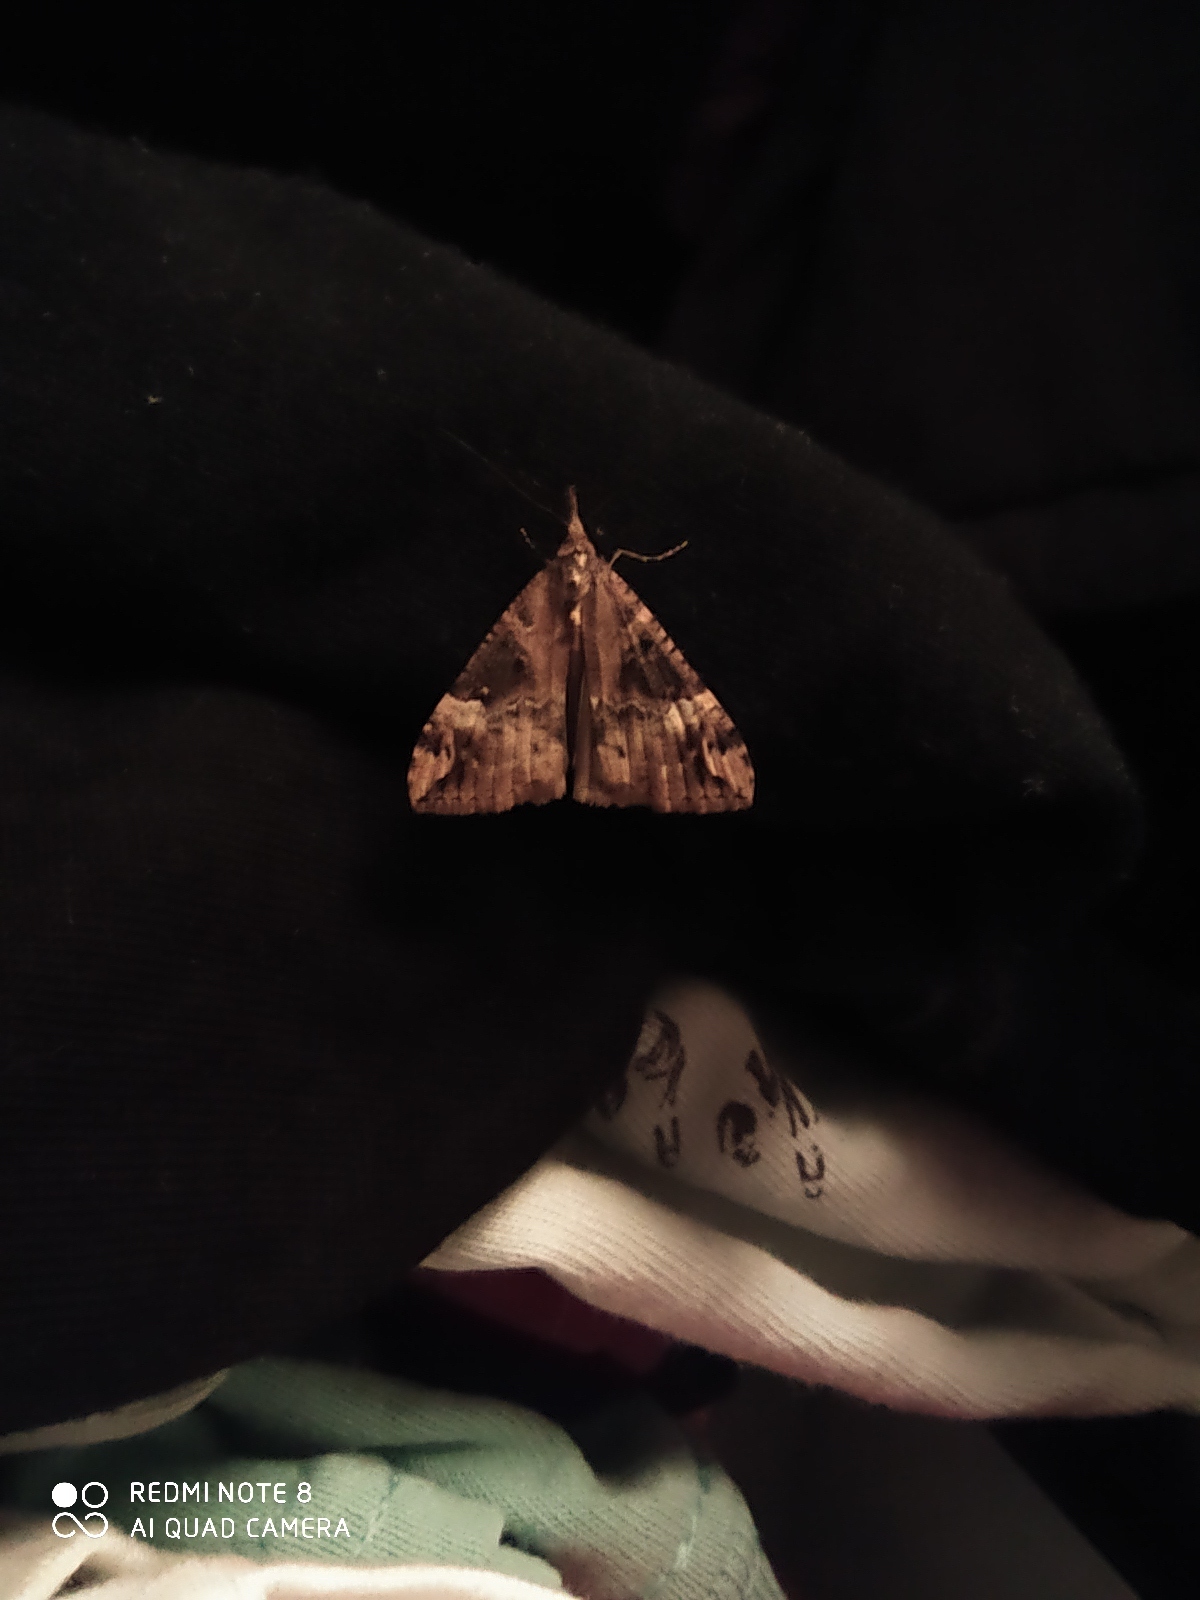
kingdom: Animalia
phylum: Arthropoda
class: Insecta
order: Lepidoptera
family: Erebidae
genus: Hypena
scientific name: Hypena obsitalis
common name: Bloxworth snout
